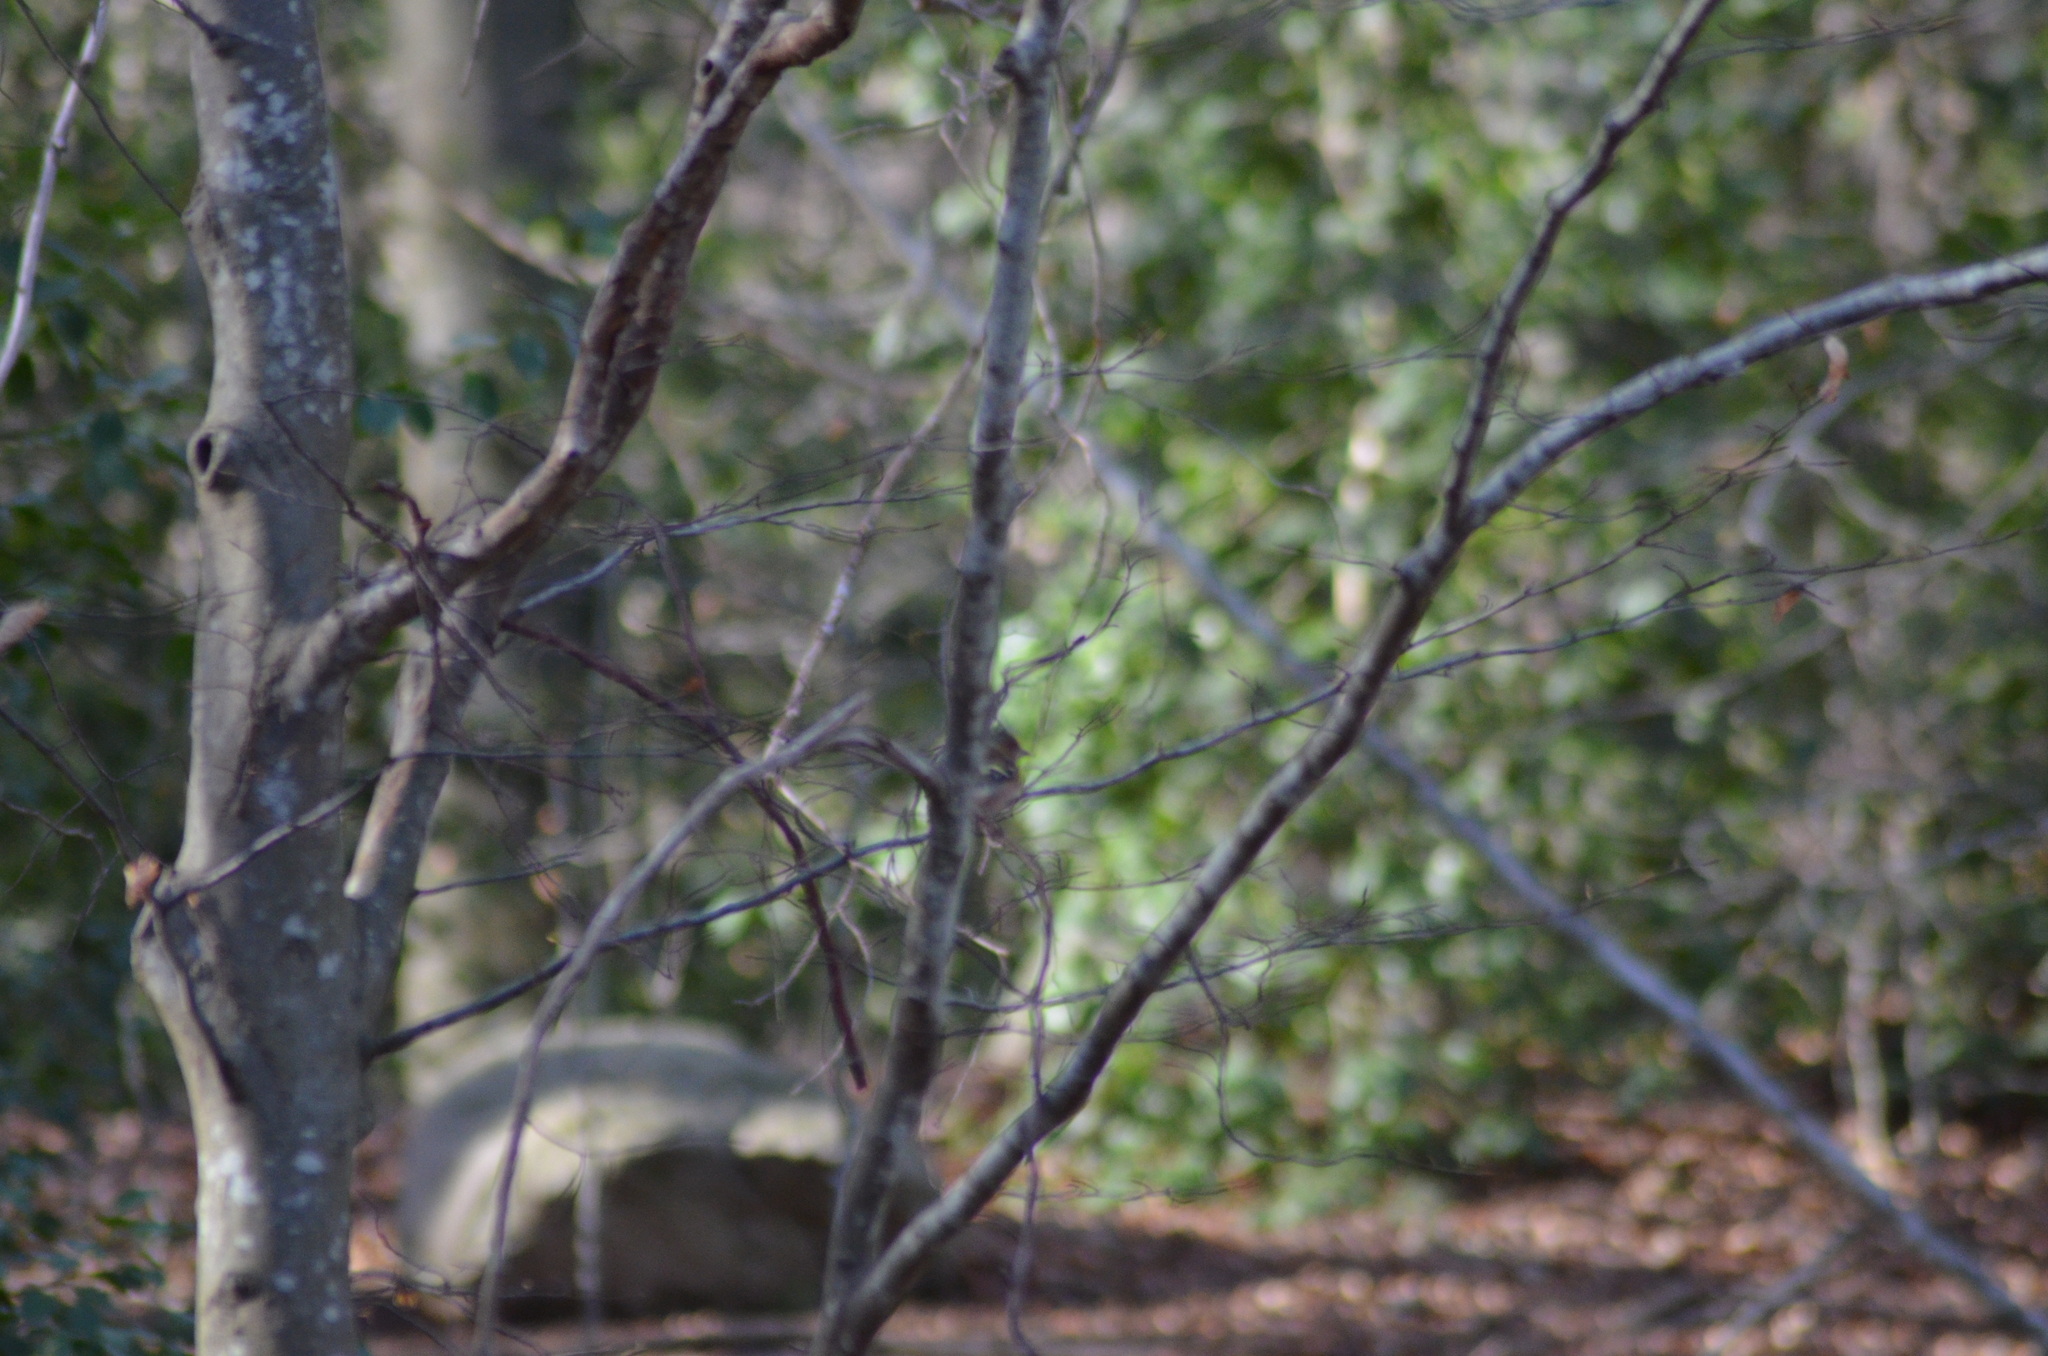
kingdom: Animalia
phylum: Chordata
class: Aves
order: Passeriformes
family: Fringillidae
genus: Fringilla
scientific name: Fringilla coelebs
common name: Common chaffinch
